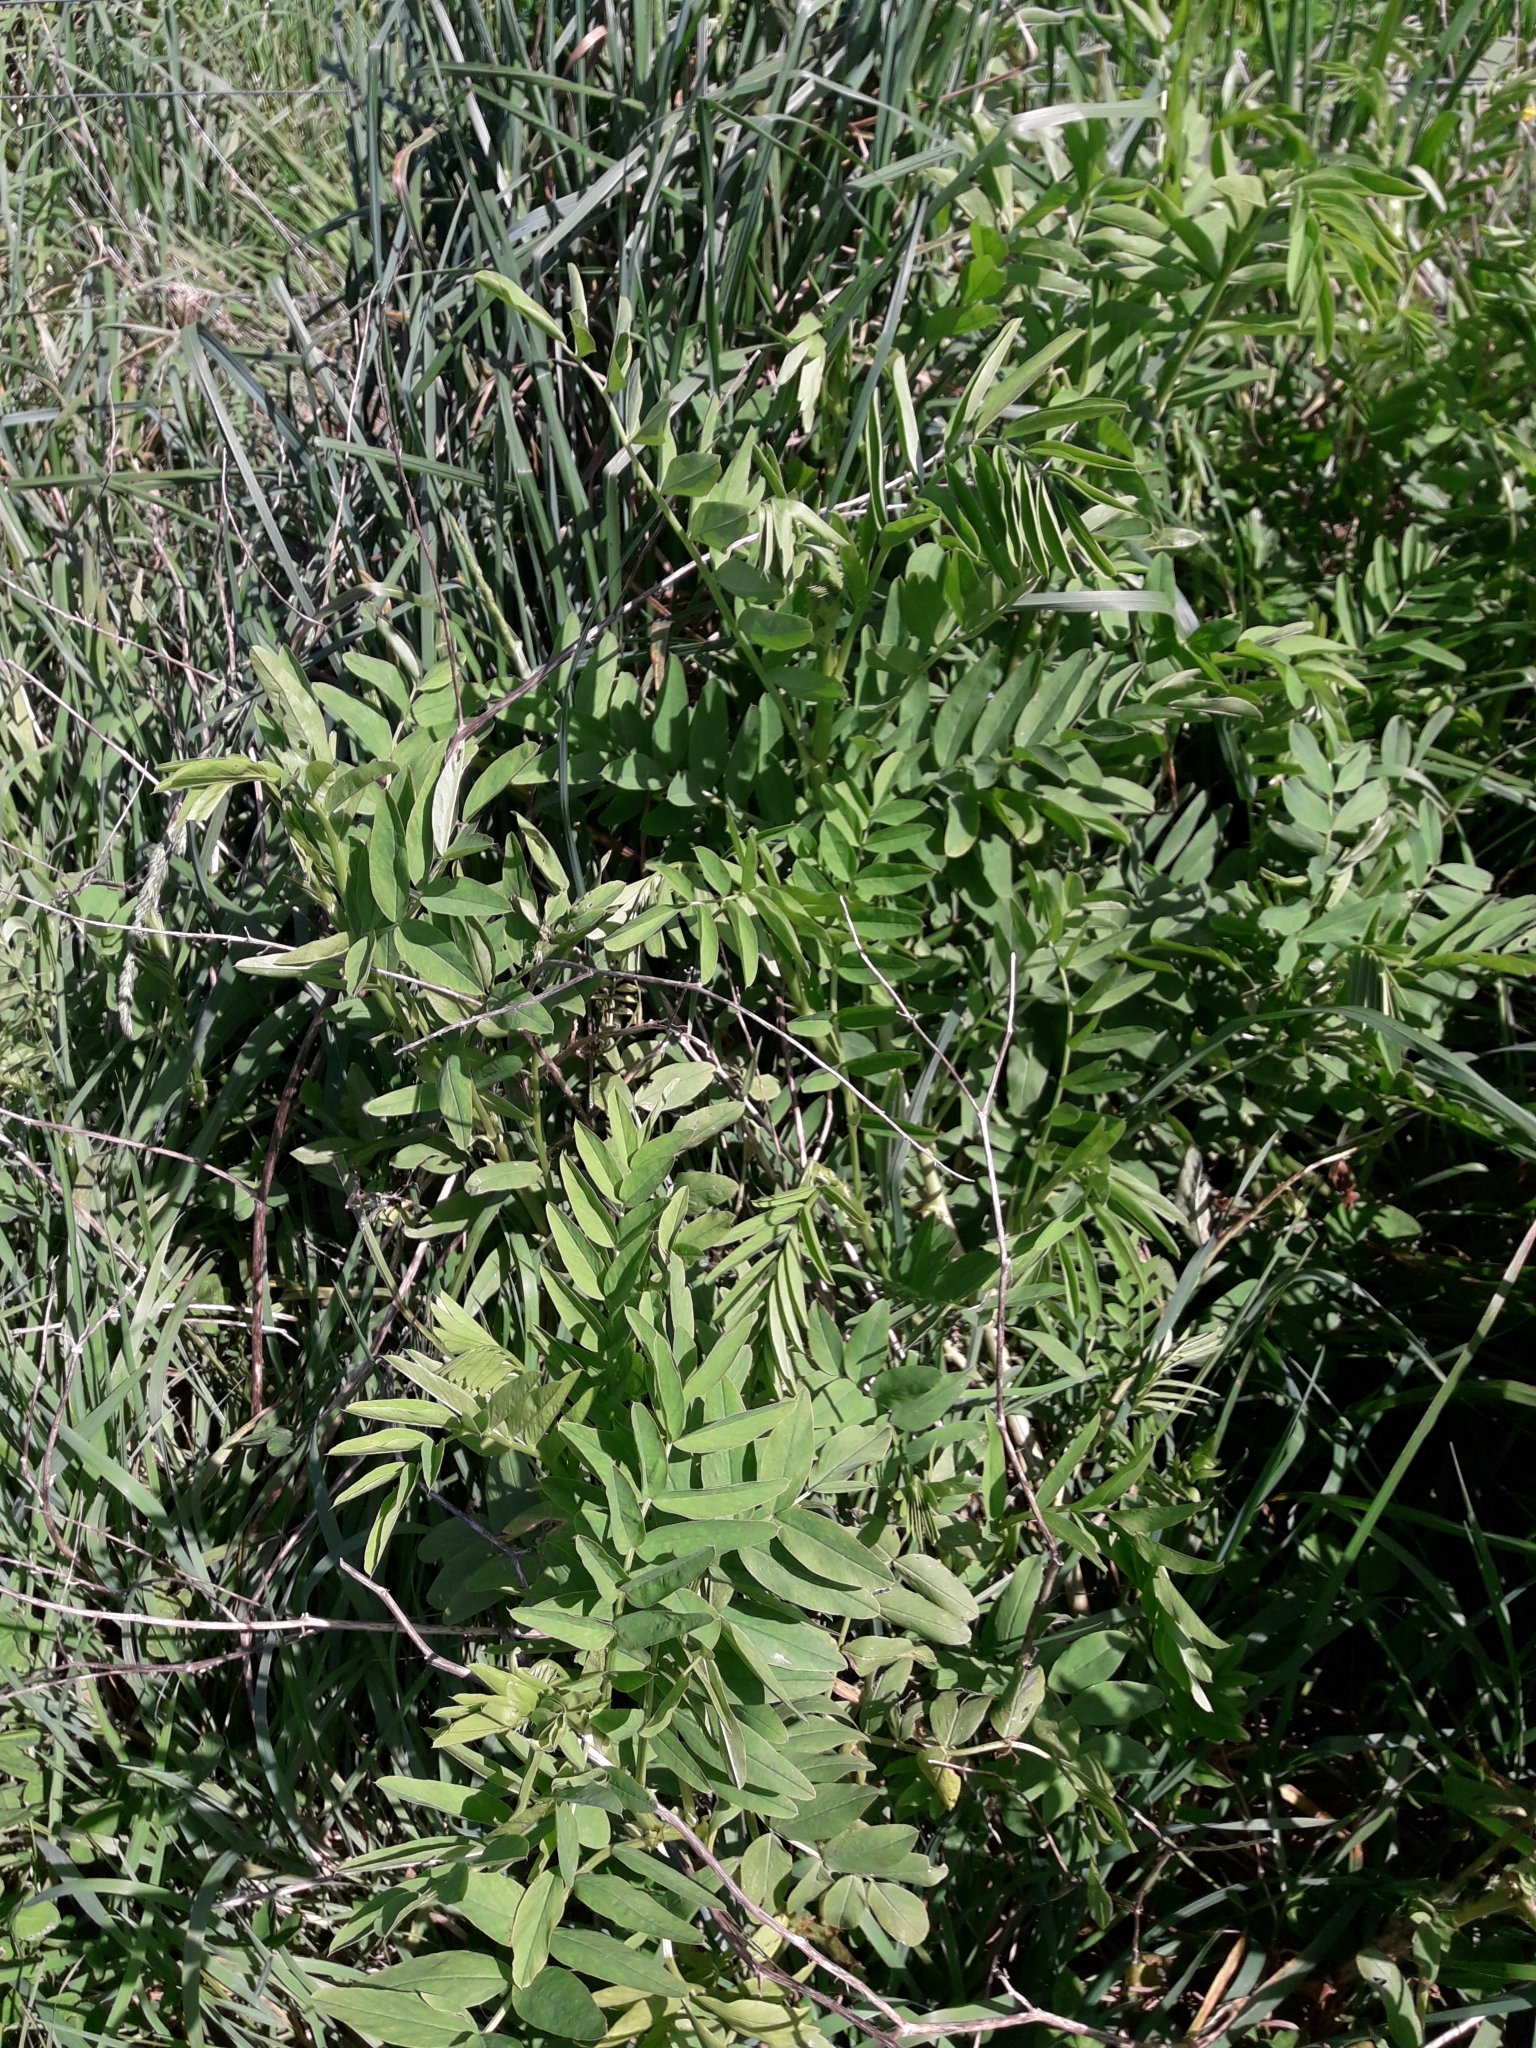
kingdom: Plantae
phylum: Tracheophyta
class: Magnoliopsida
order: Fabales
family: Fabaceae
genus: Galega
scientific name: Galega officinalis
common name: Goat's-rue
